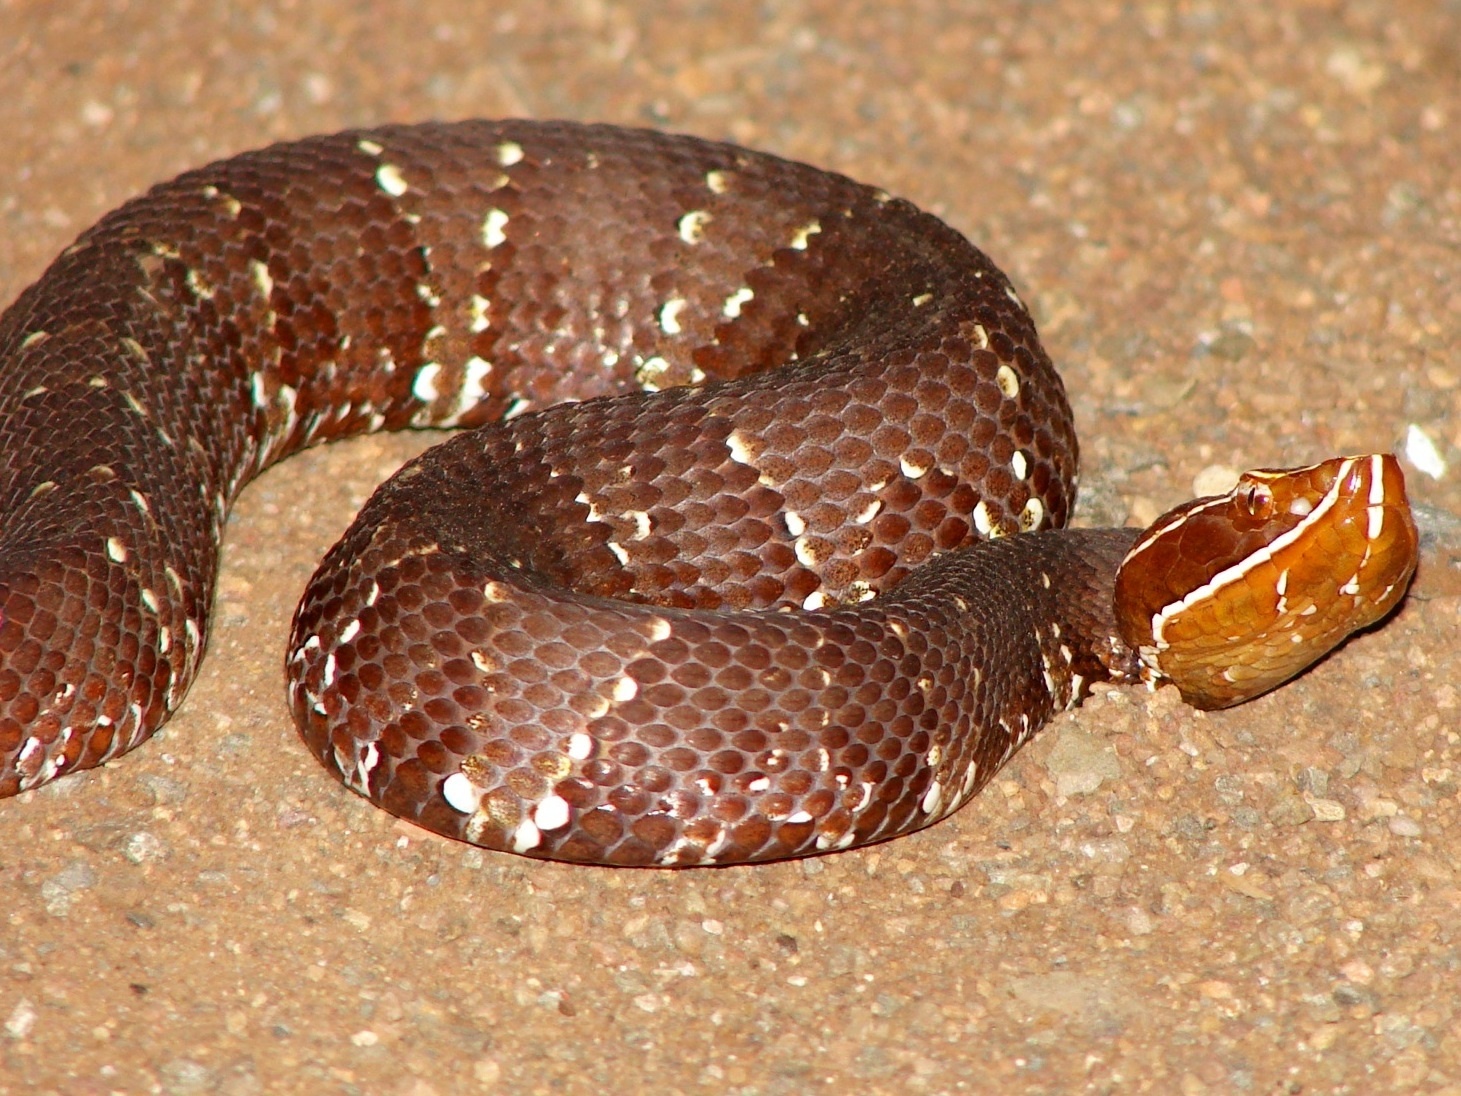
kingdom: Animalia
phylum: Chordata
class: Squamata
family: Viperidae
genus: Agkistrodon
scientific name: Agkistrodon bilineatus
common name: Mexican moccasin
